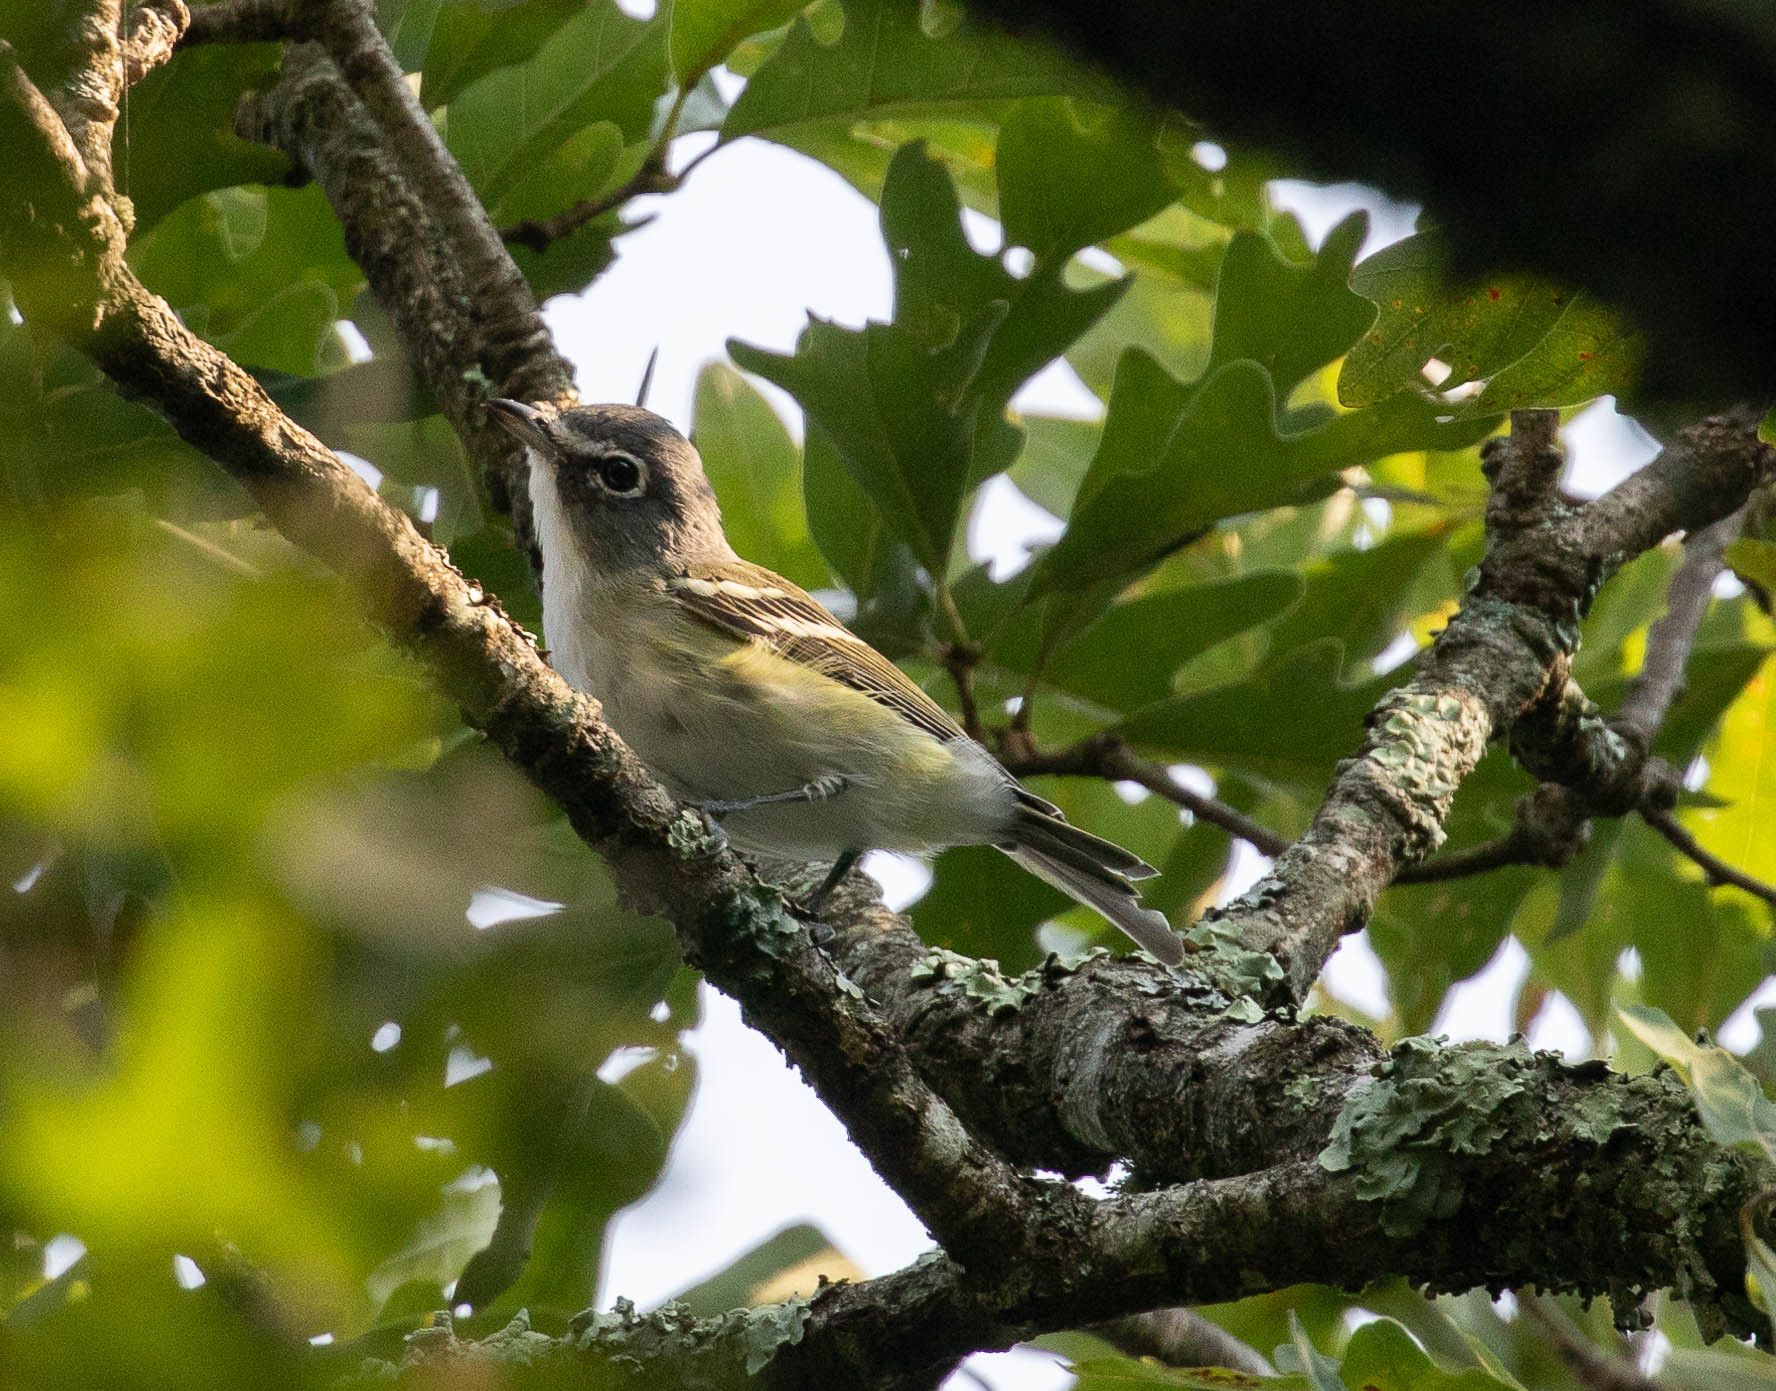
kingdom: Animalia
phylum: Chordata
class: Aves
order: Passeriformes
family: Vireonidae
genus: Vireo
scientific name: Vireo solitarius
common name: Blue-headed vireo
